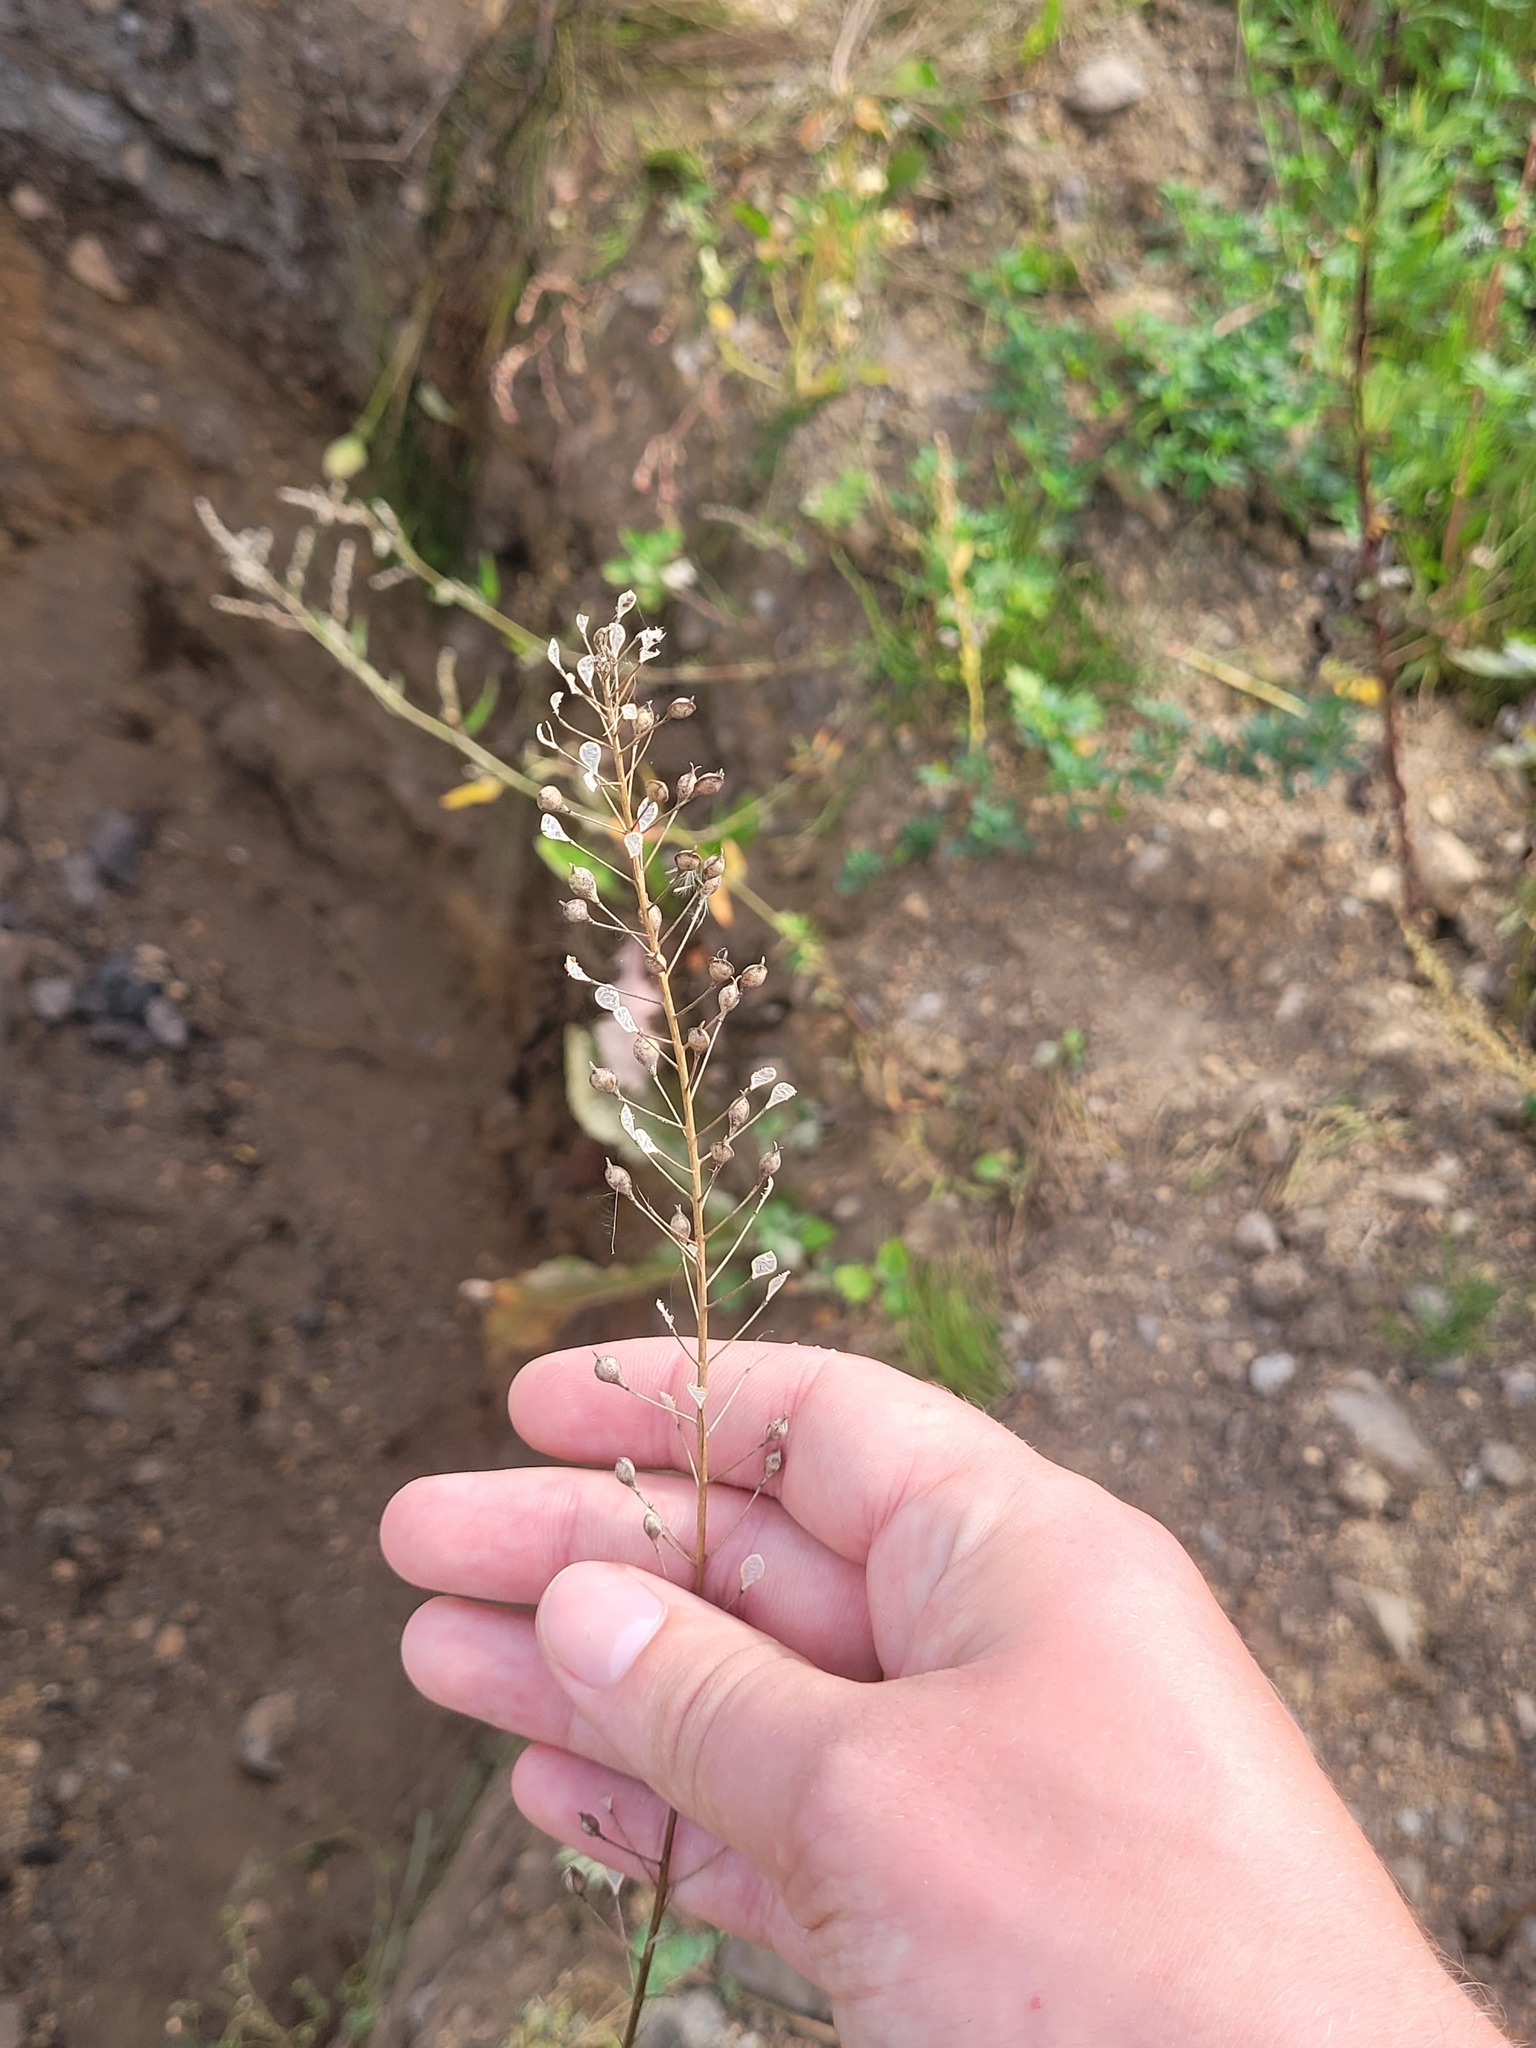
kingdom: Plantae
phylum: Tracheophyta
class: Magnoliopsida
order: Brassicales
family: Brassicaceae
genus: Camelina
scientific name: Camelina microcarpa
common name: Lesser gold-of-pleasure
